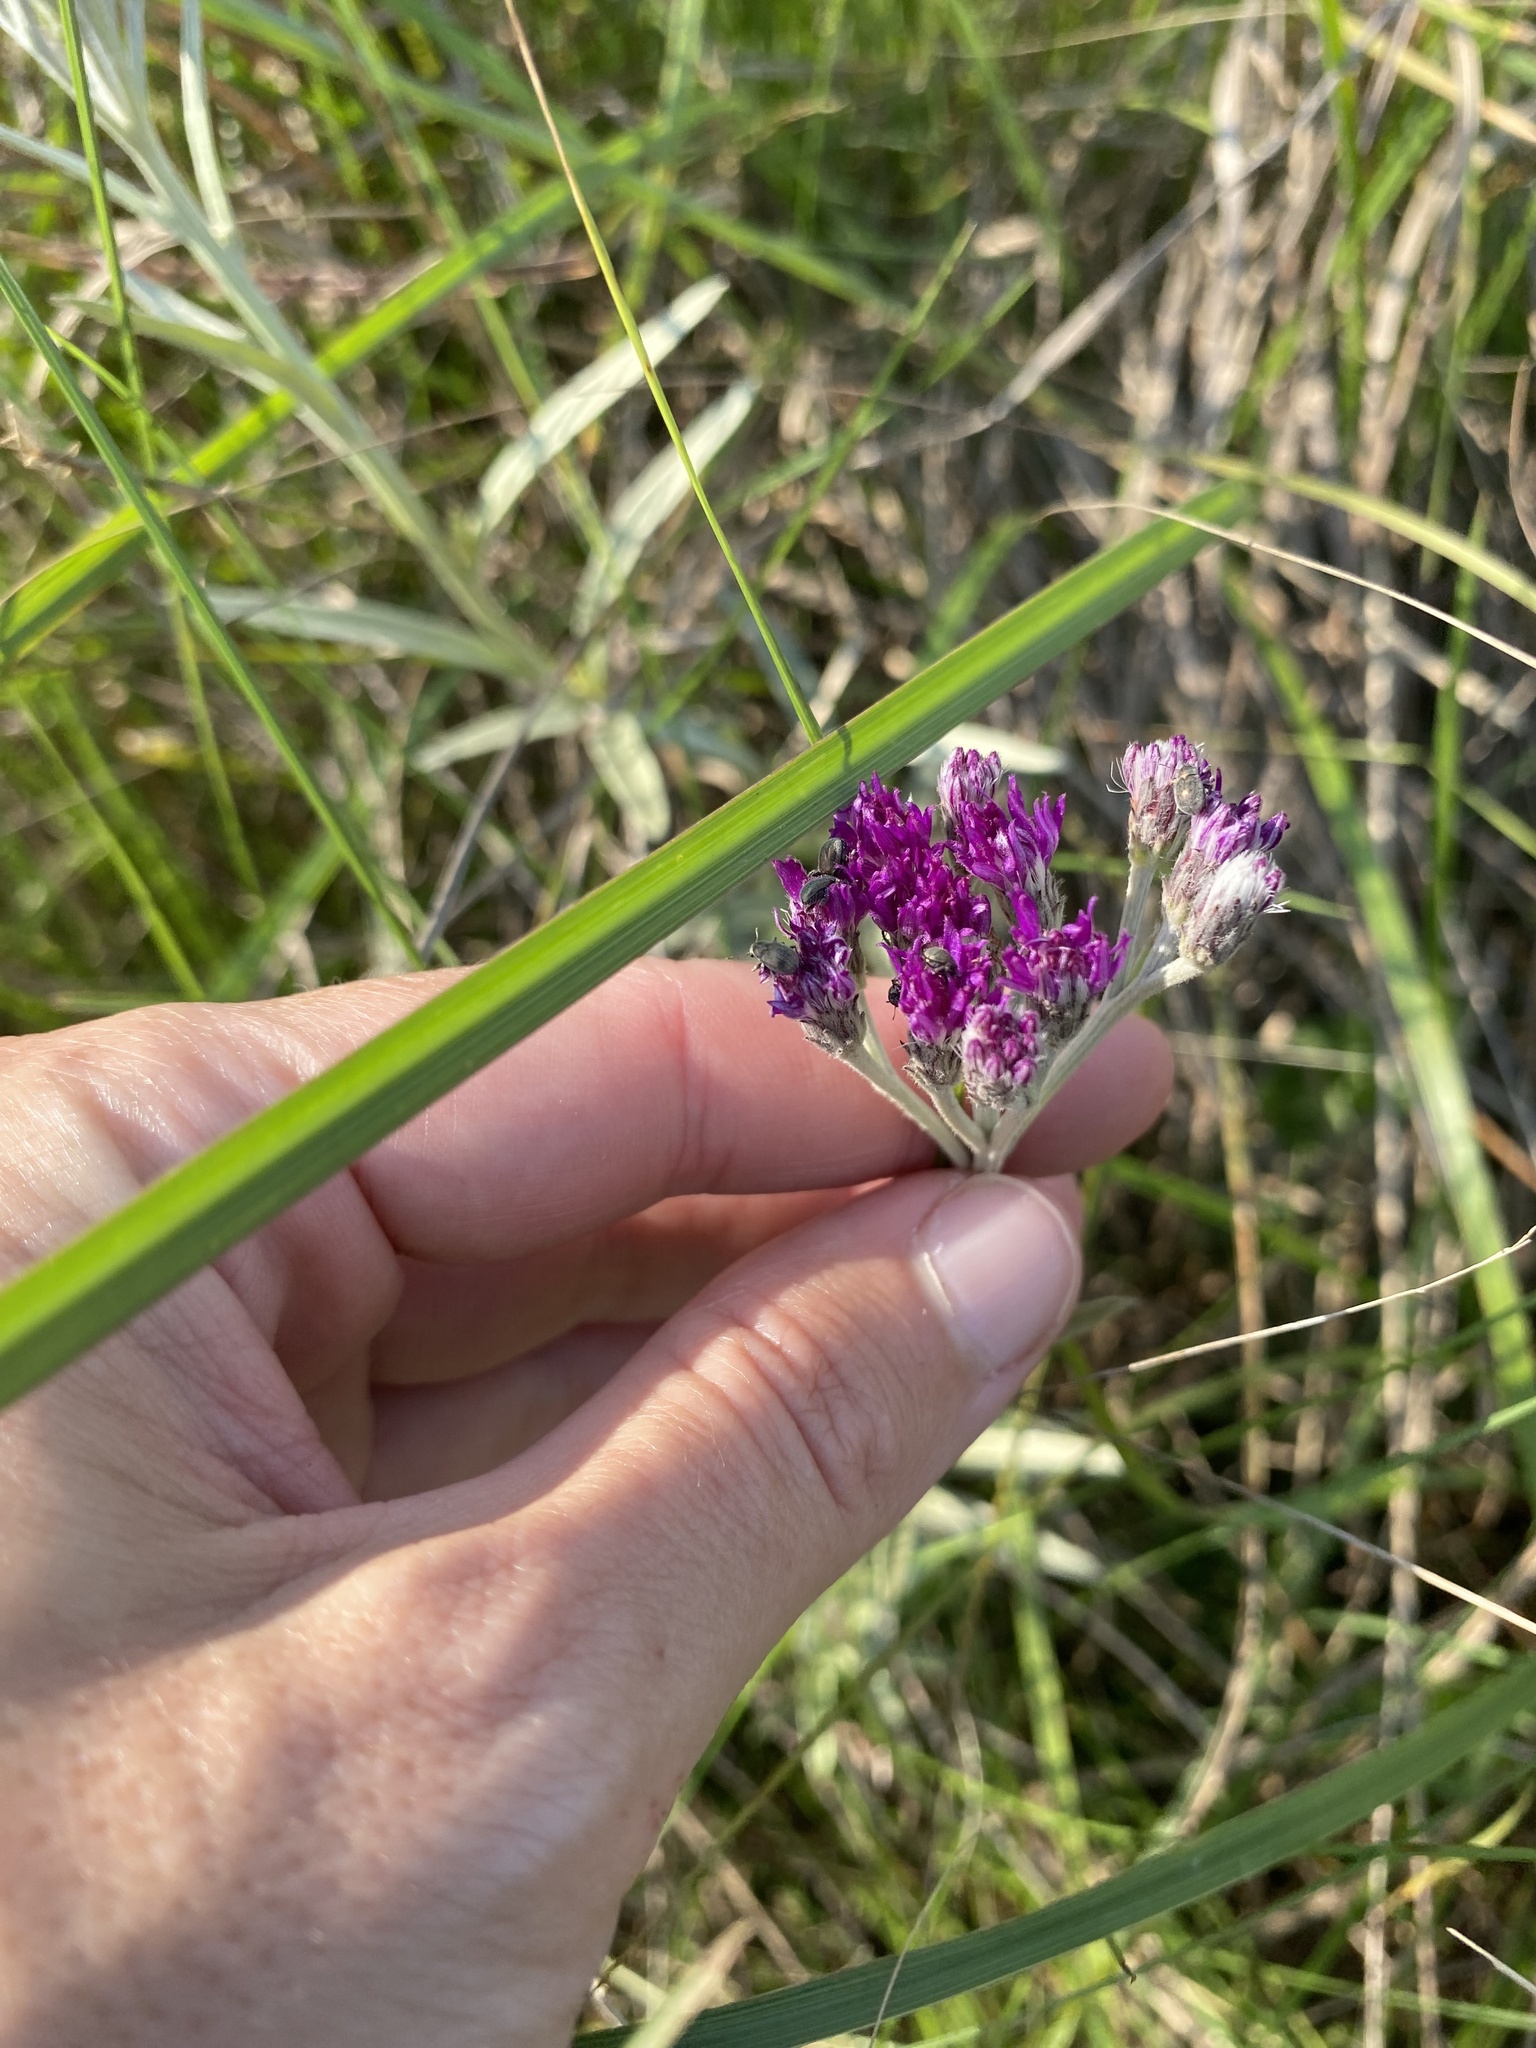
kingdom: Plantae
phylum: Tracheophyta
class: Magnoliopsida
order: Asterales
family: Asteraceae
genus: Hilliardiella
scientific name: Hilliardiella aristata
